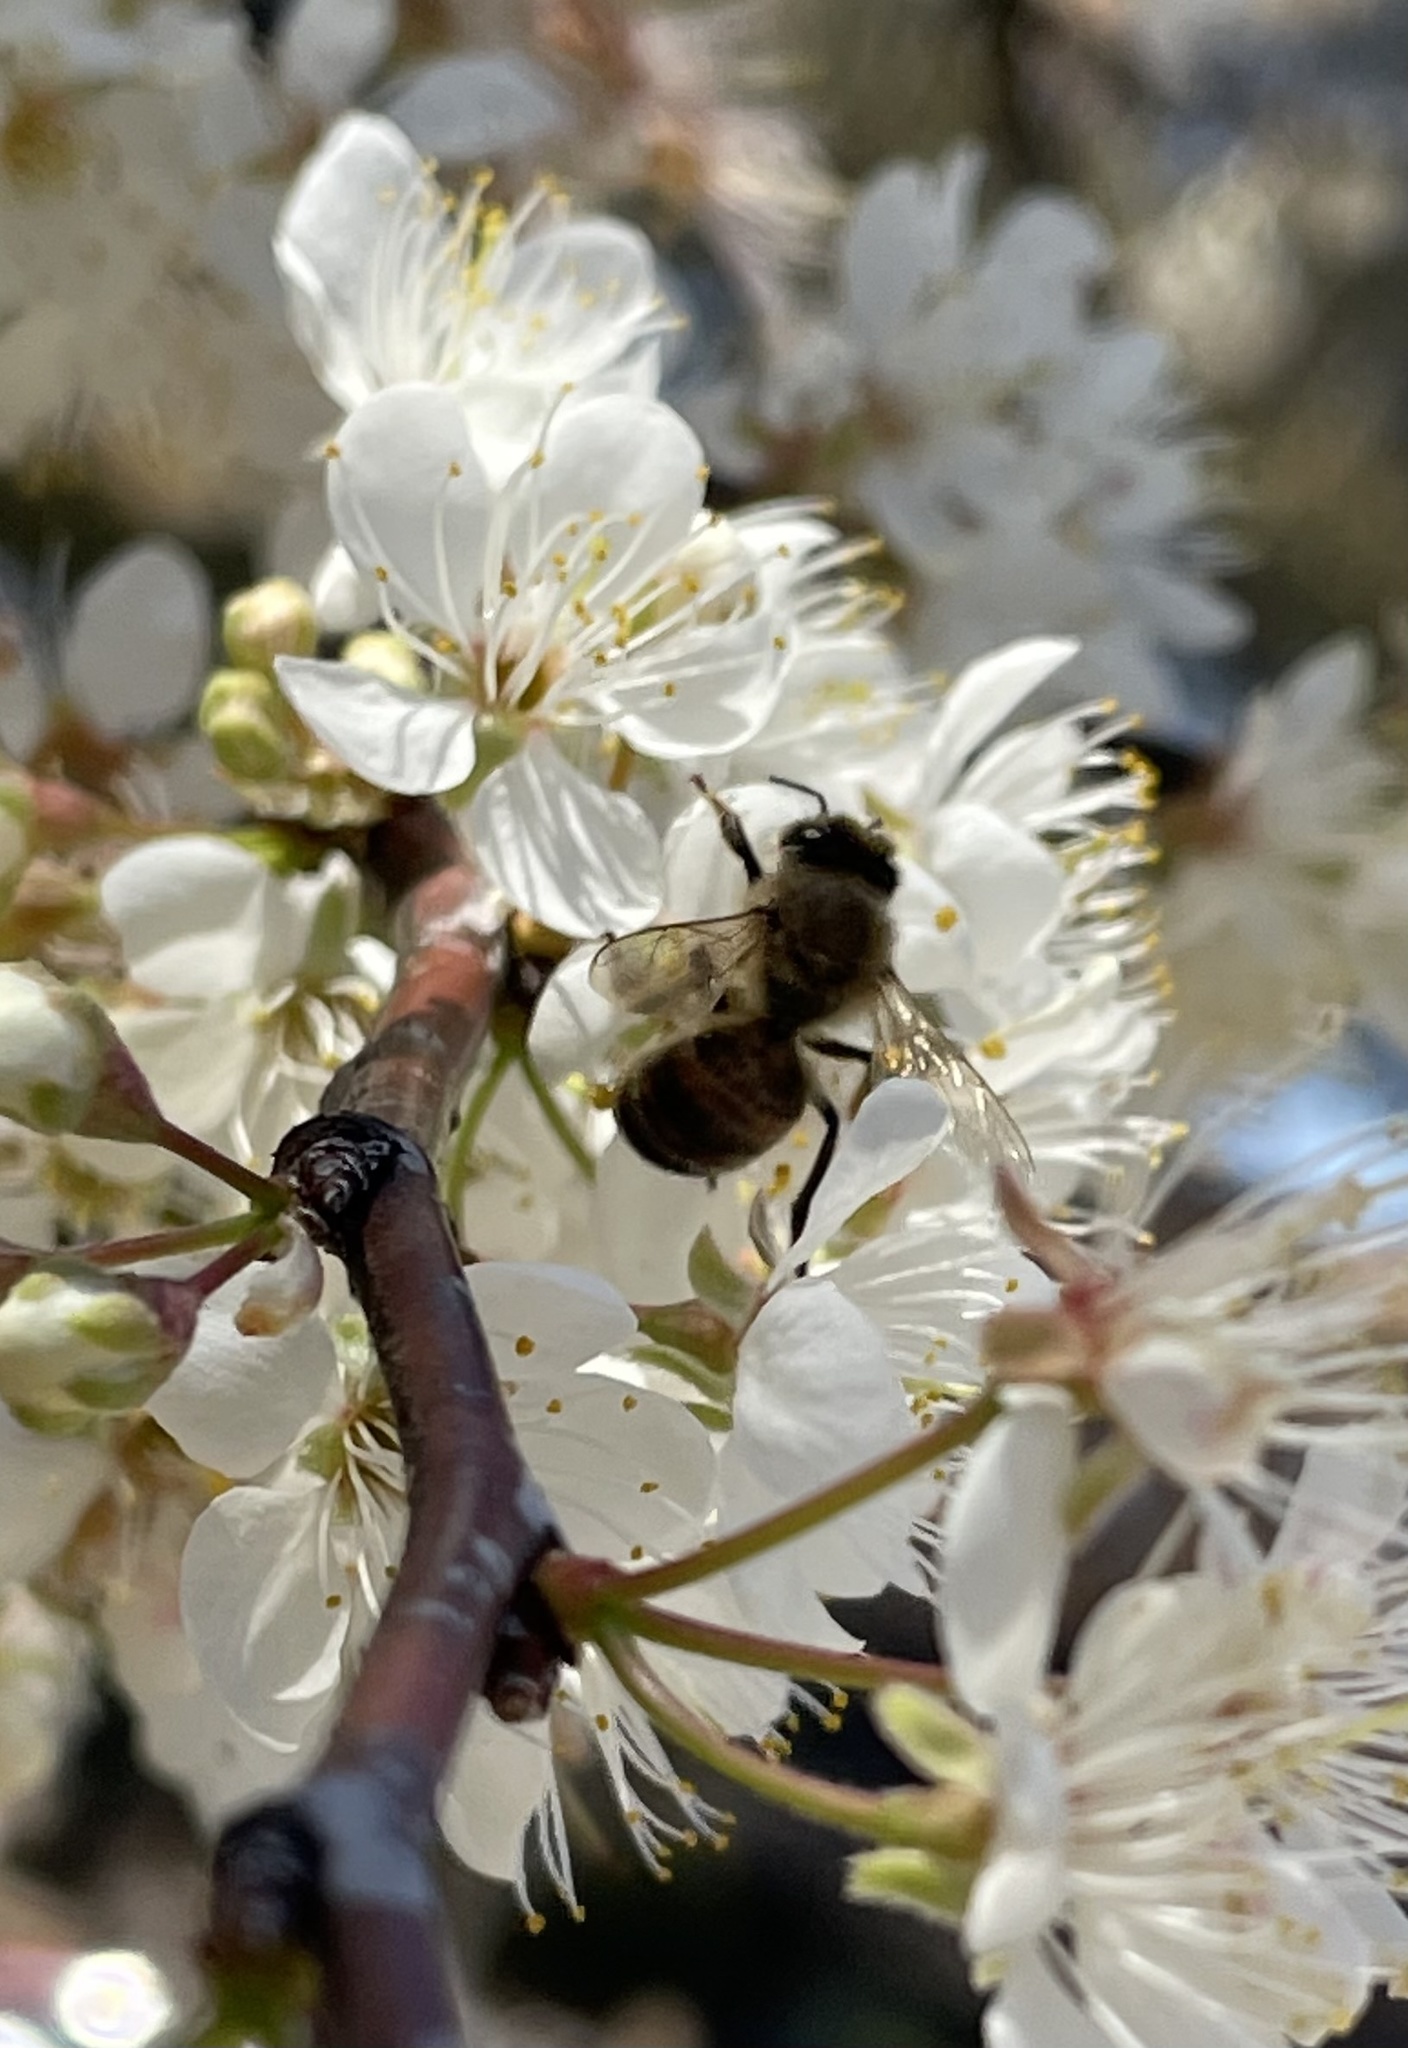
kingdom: Animalia
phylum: Arthropoda
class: Insecta
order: Hymenoptera
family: Apidae
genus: Apis
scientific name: Apis mellifera
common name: Honey bee
